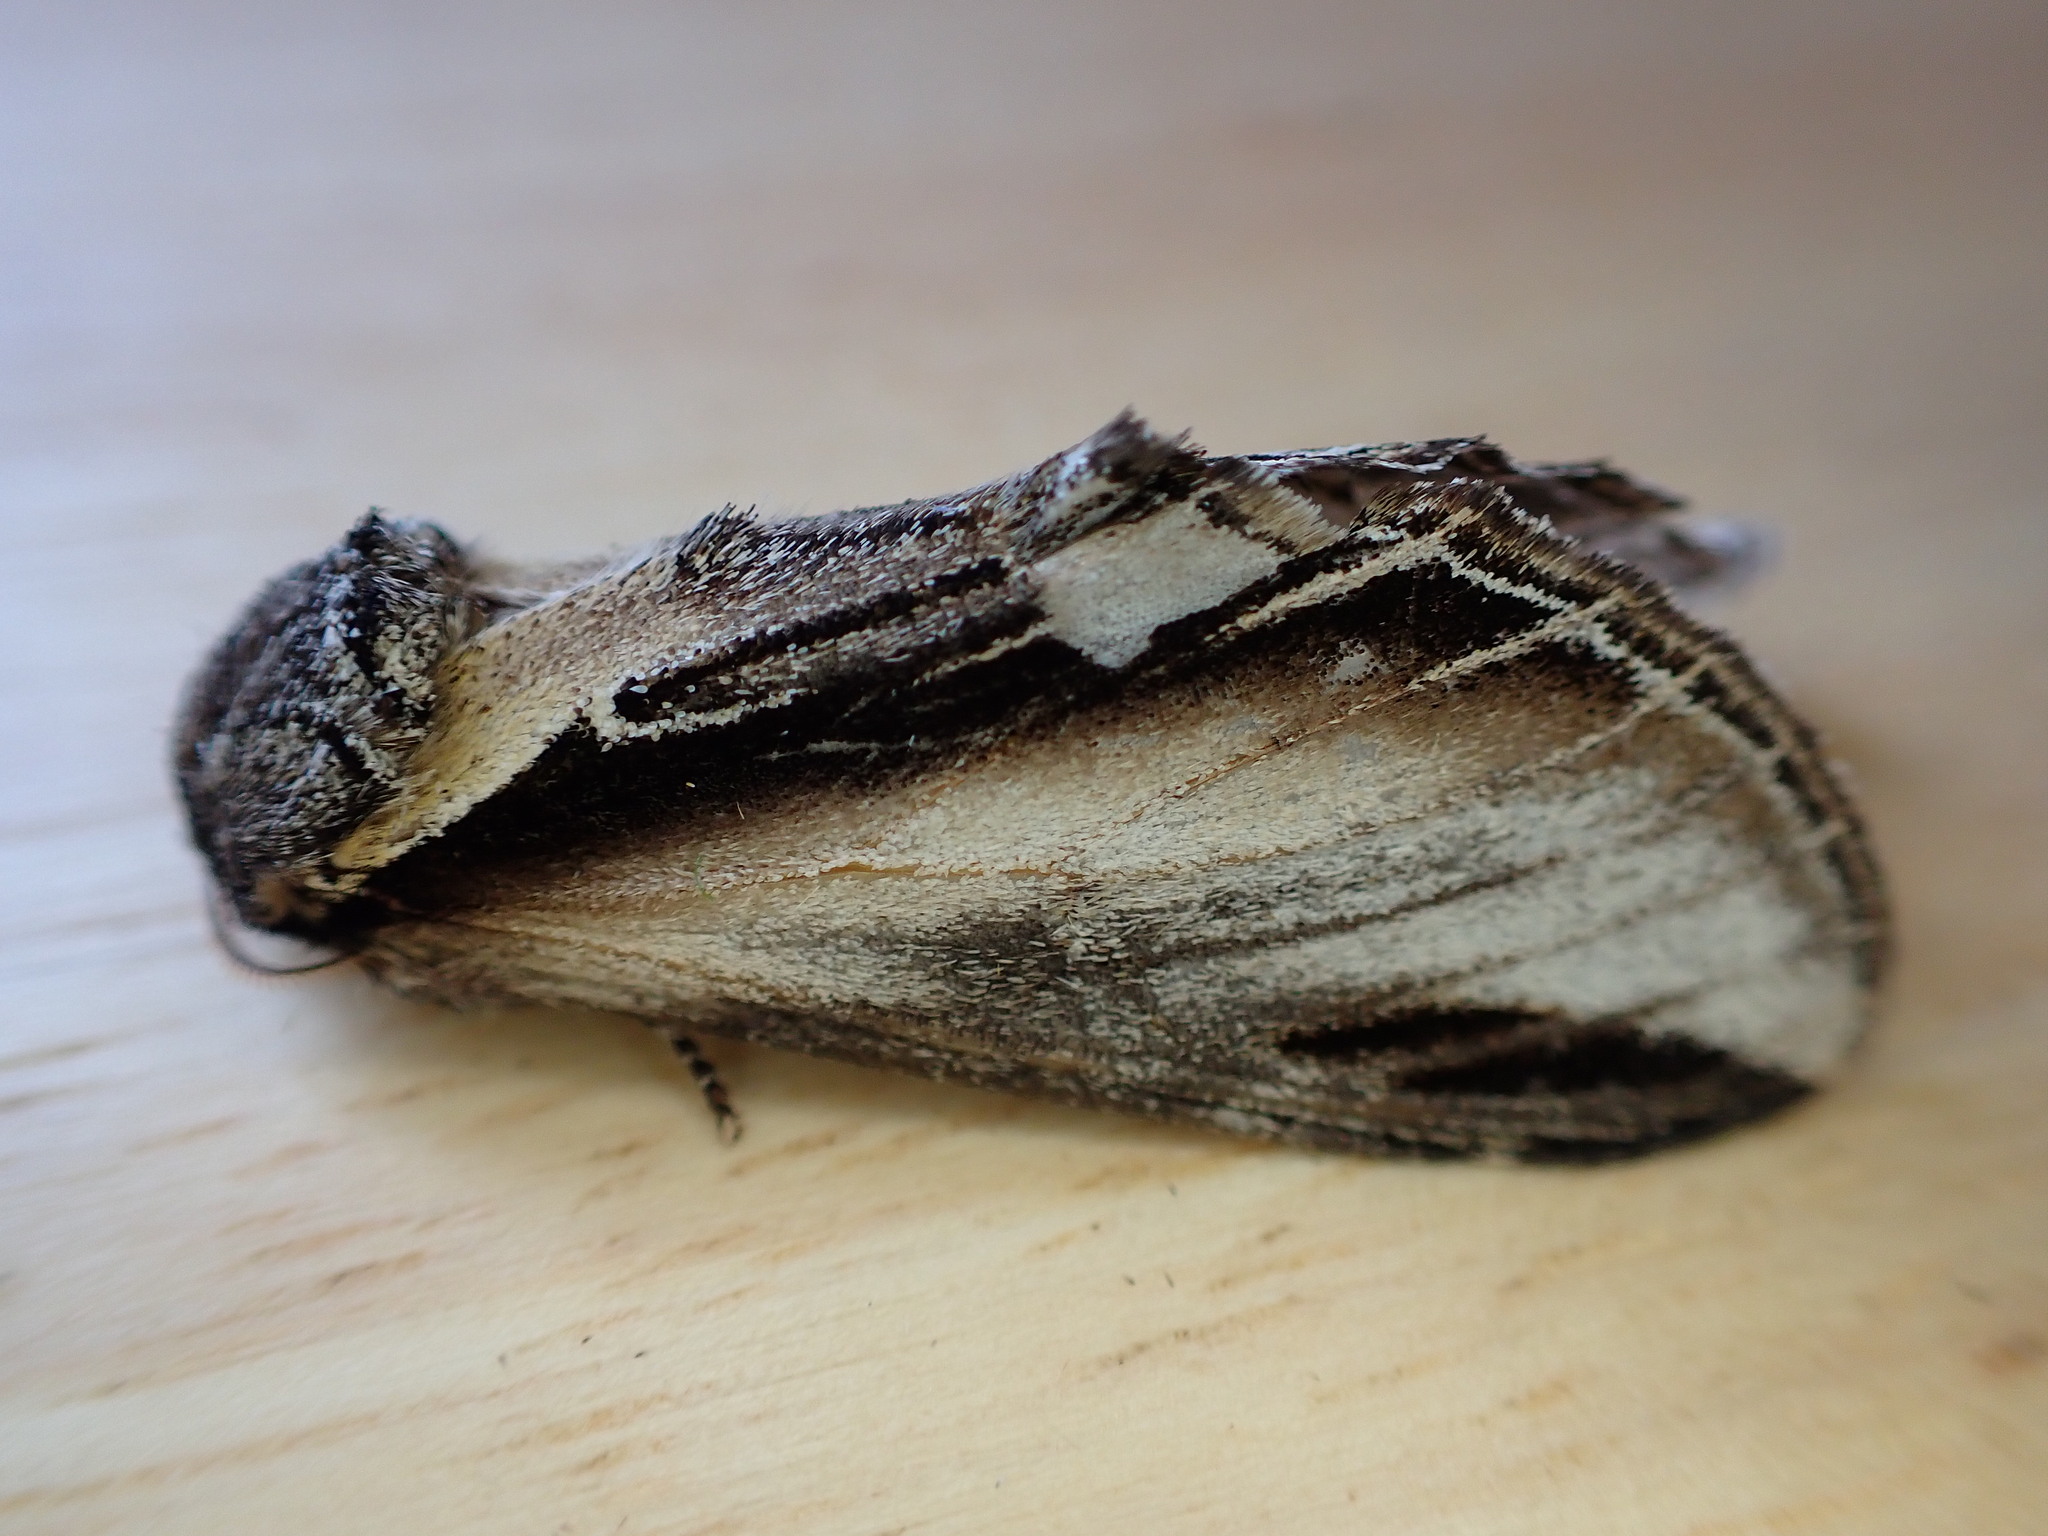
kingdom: Animalia
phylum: Arthropoda
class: Insecta
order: Lepidoptera
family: Notodontidae
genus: Pheosia
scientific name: Pheosia tremula
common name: Swallow prominent
